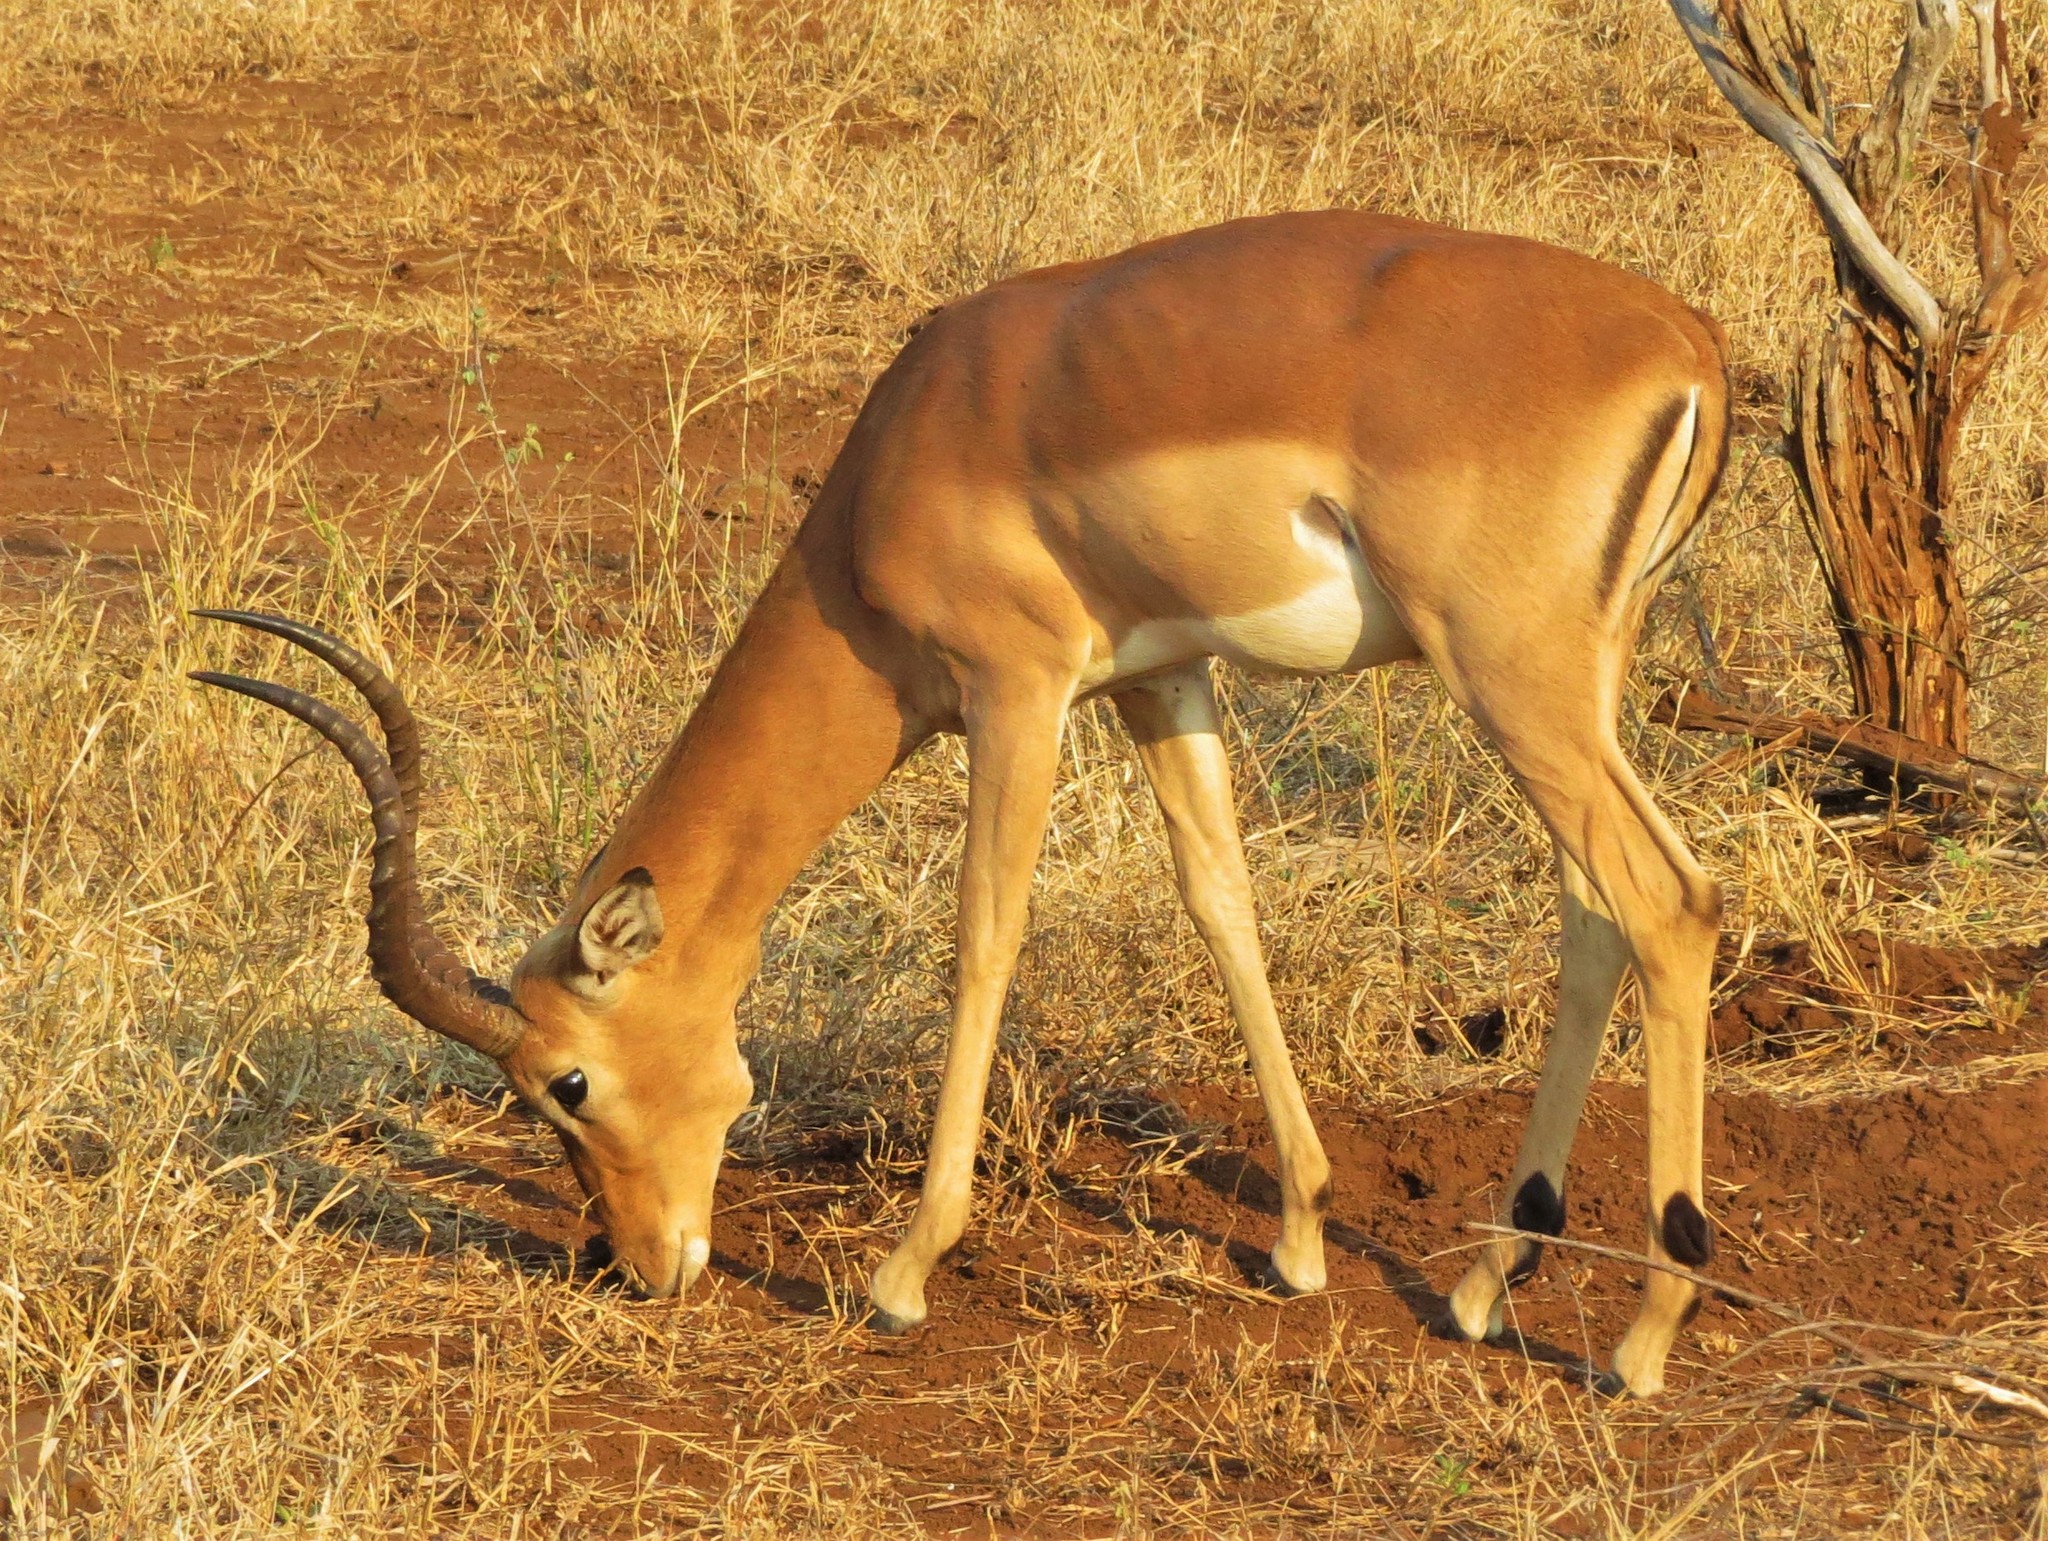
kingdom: Animalia
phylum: Chordata
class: Mammalia
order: Artiodactyla
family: Bovidae
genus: Aepyceros
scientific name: Aepyceros melampus
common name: Impala
